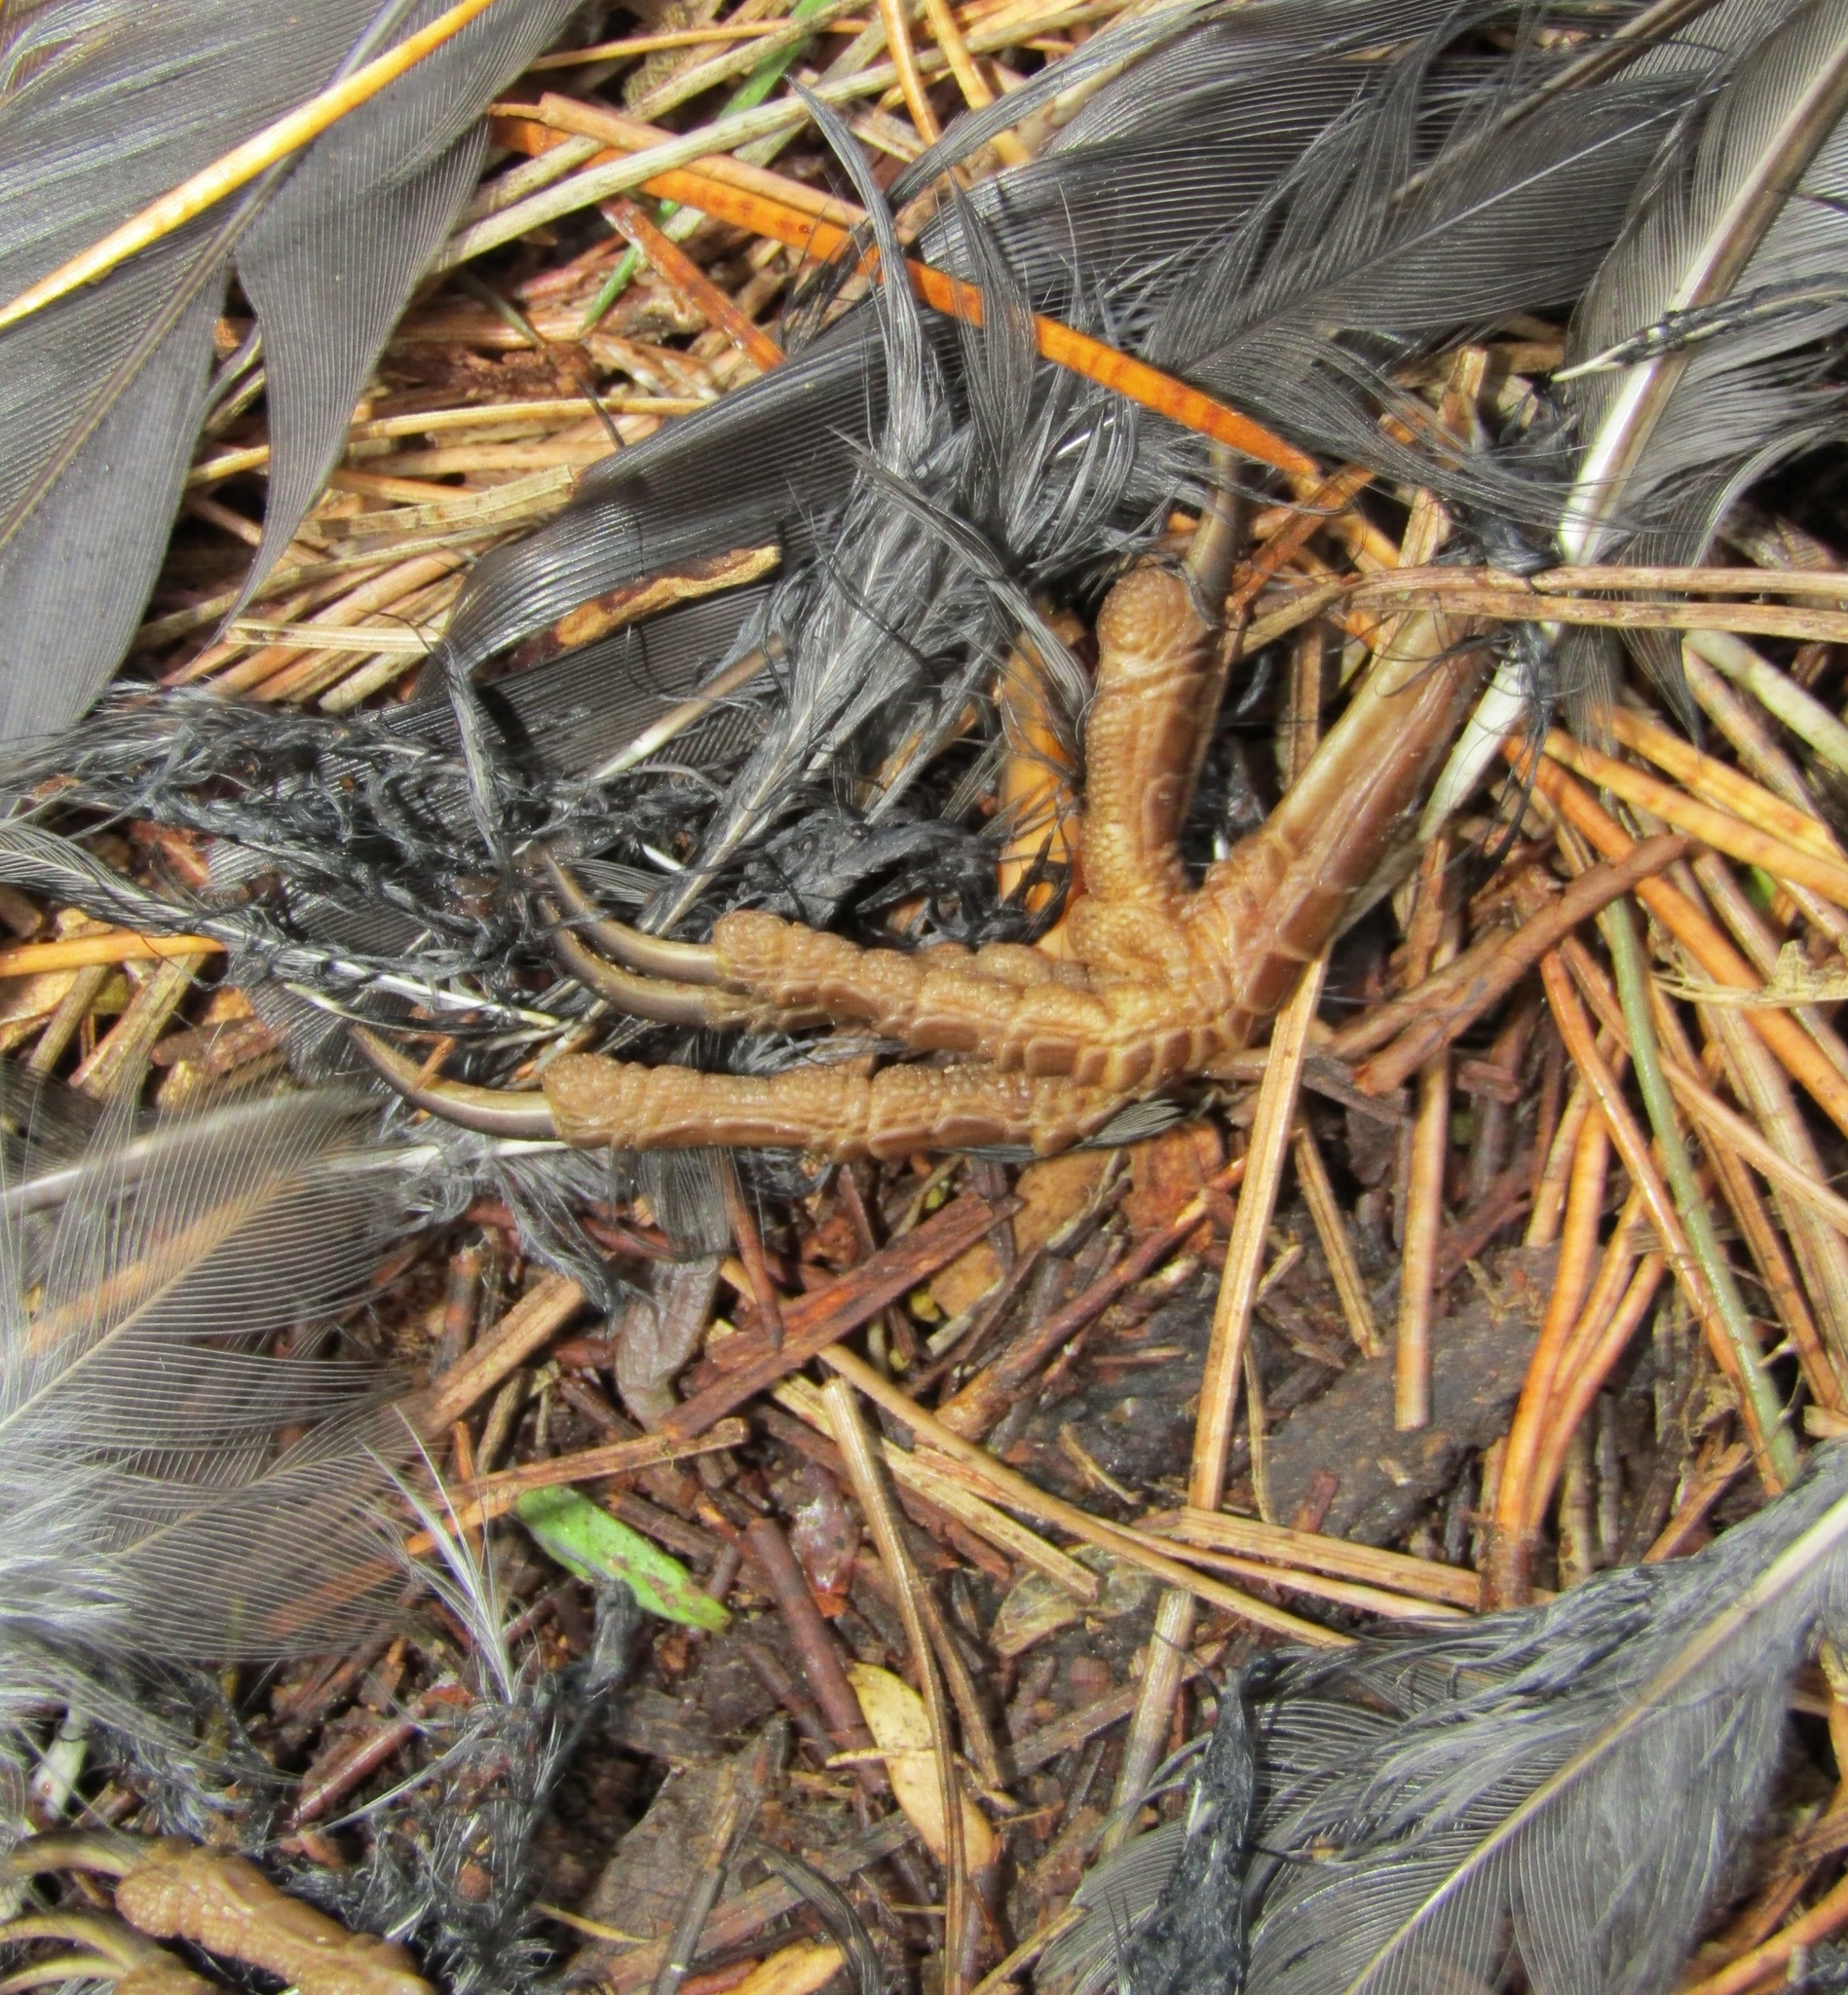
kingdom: Animalia
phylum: Chordata
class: Aves
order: Passeriformes
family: Turdidae
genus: Turdus
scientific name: Turdus merula
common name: Common blackbird
